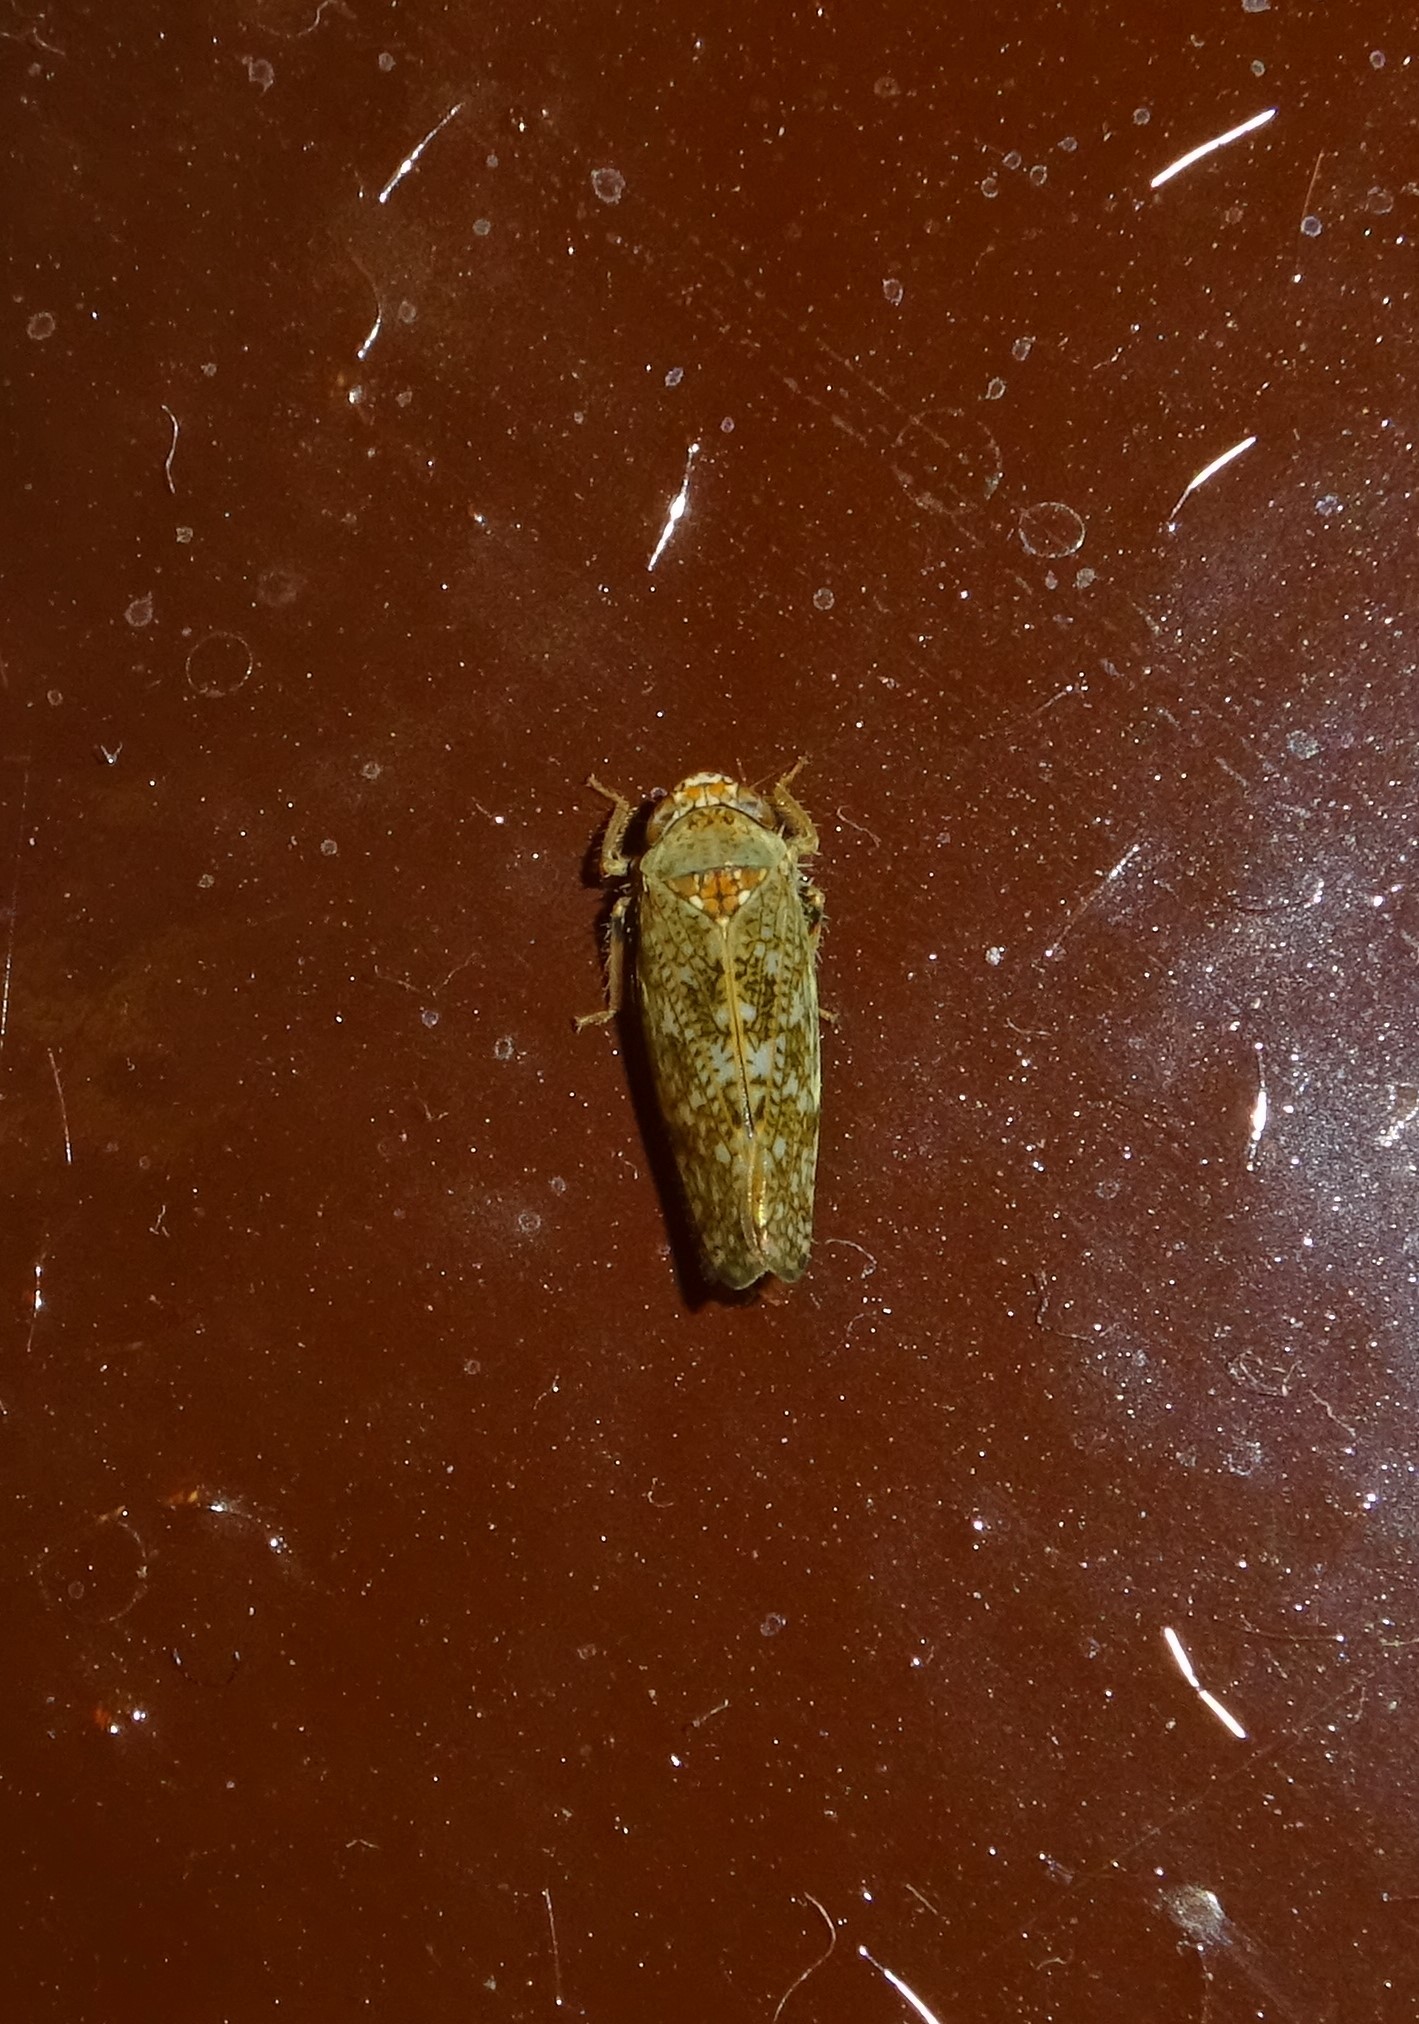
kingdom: Animalia
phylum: Arthropoda
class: Insecta
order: Hemiptera
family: Cicadellidae
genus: Orientus
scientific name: Orientus ishidae
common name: Japanese leafhopper
